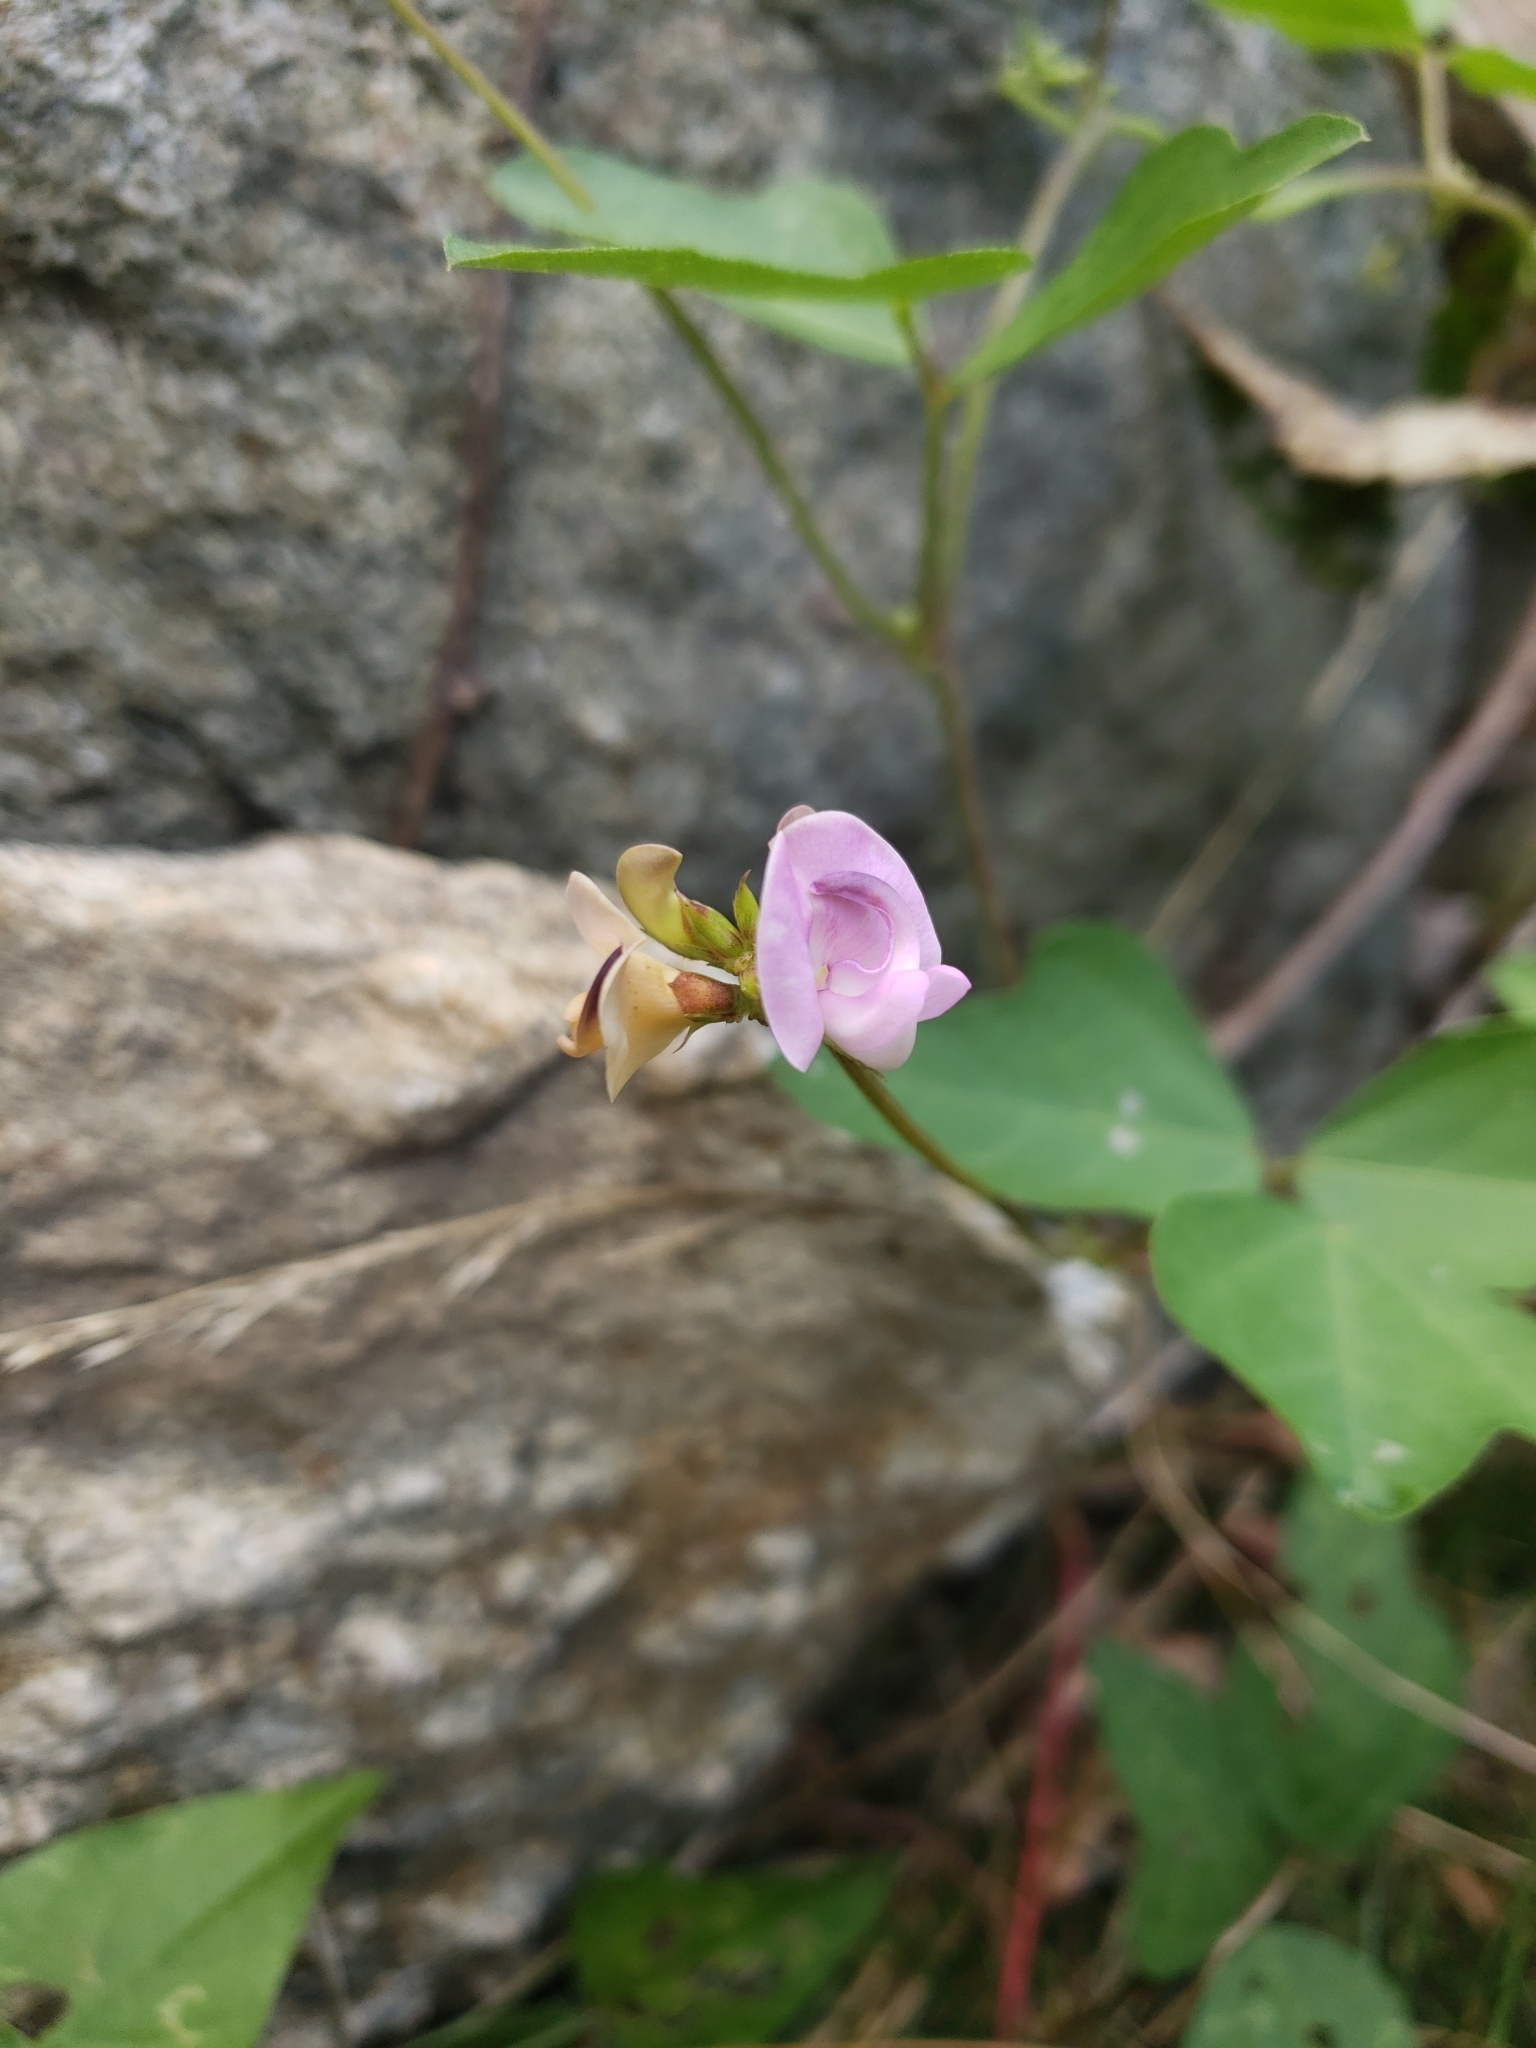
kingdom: Plantae
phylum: Tracheophyta
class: Magnoliopsida
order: Fabales
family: Fabaceae
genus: Strophostyles
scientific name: Strophostyles helvola
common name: Trailing wild bean
